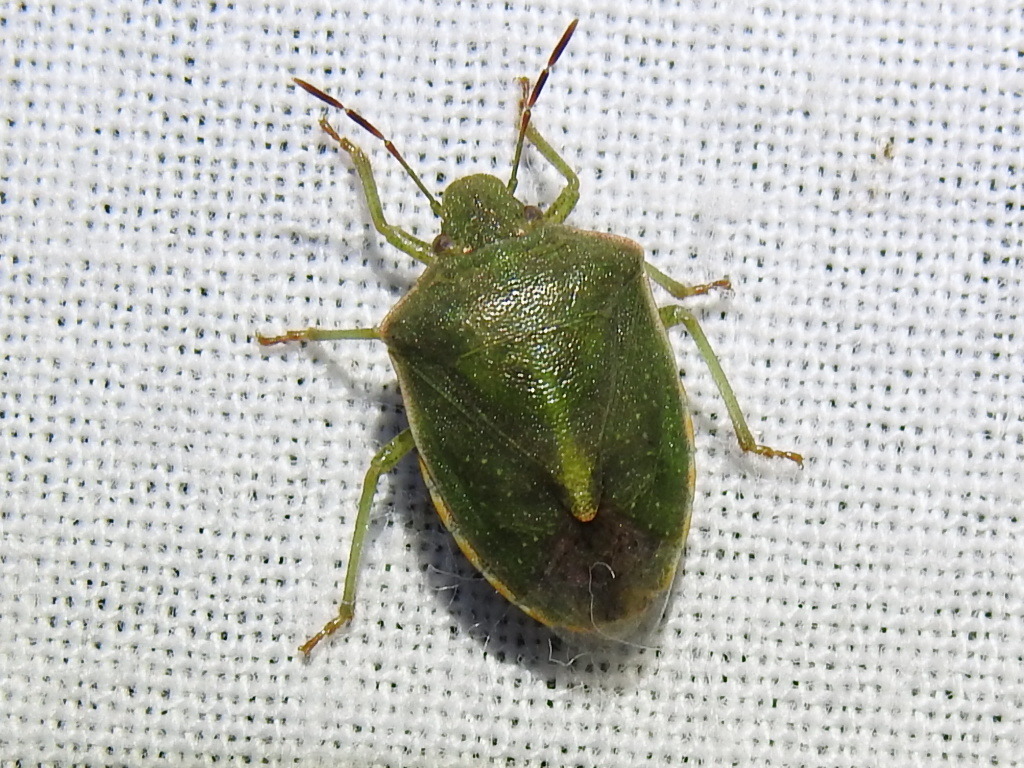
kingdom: Animalia
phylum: Arthropoda
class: Insecta
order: Hemiptera
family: Pentatomidae
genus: Thyanta
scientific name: Thyanta accerra
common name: Stink bug
